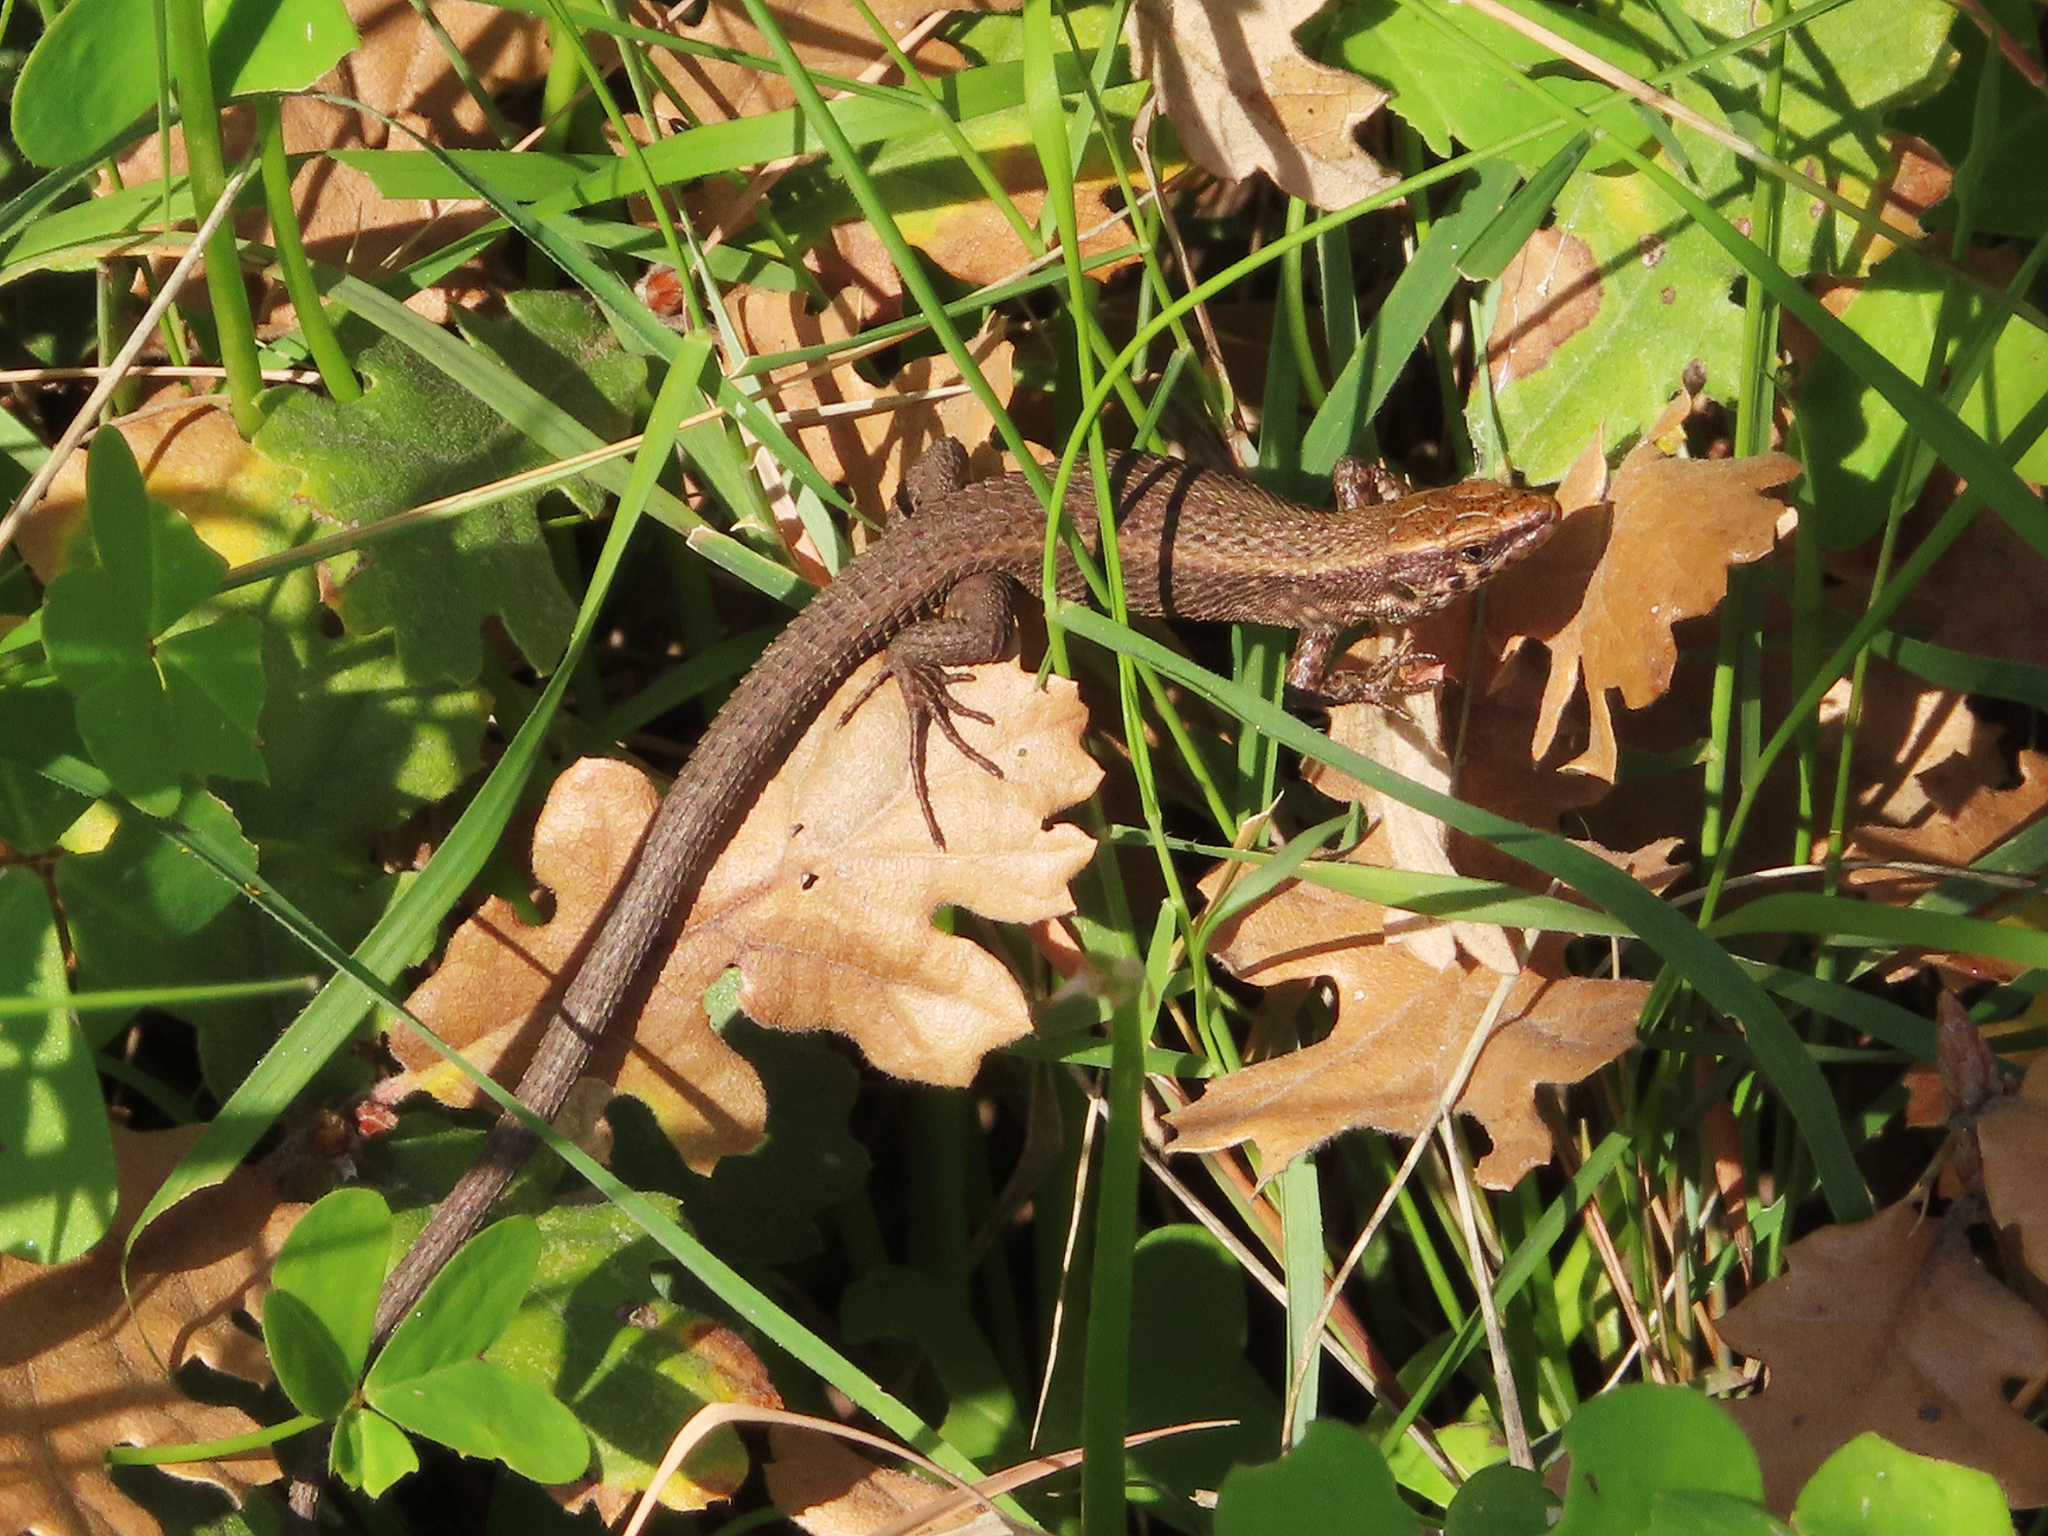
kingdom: Animalia
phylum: Chordata
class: Squamata
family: Lacertidae
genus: Algyroides
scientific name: Algyroides moreoticus
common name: Greek algyroides
